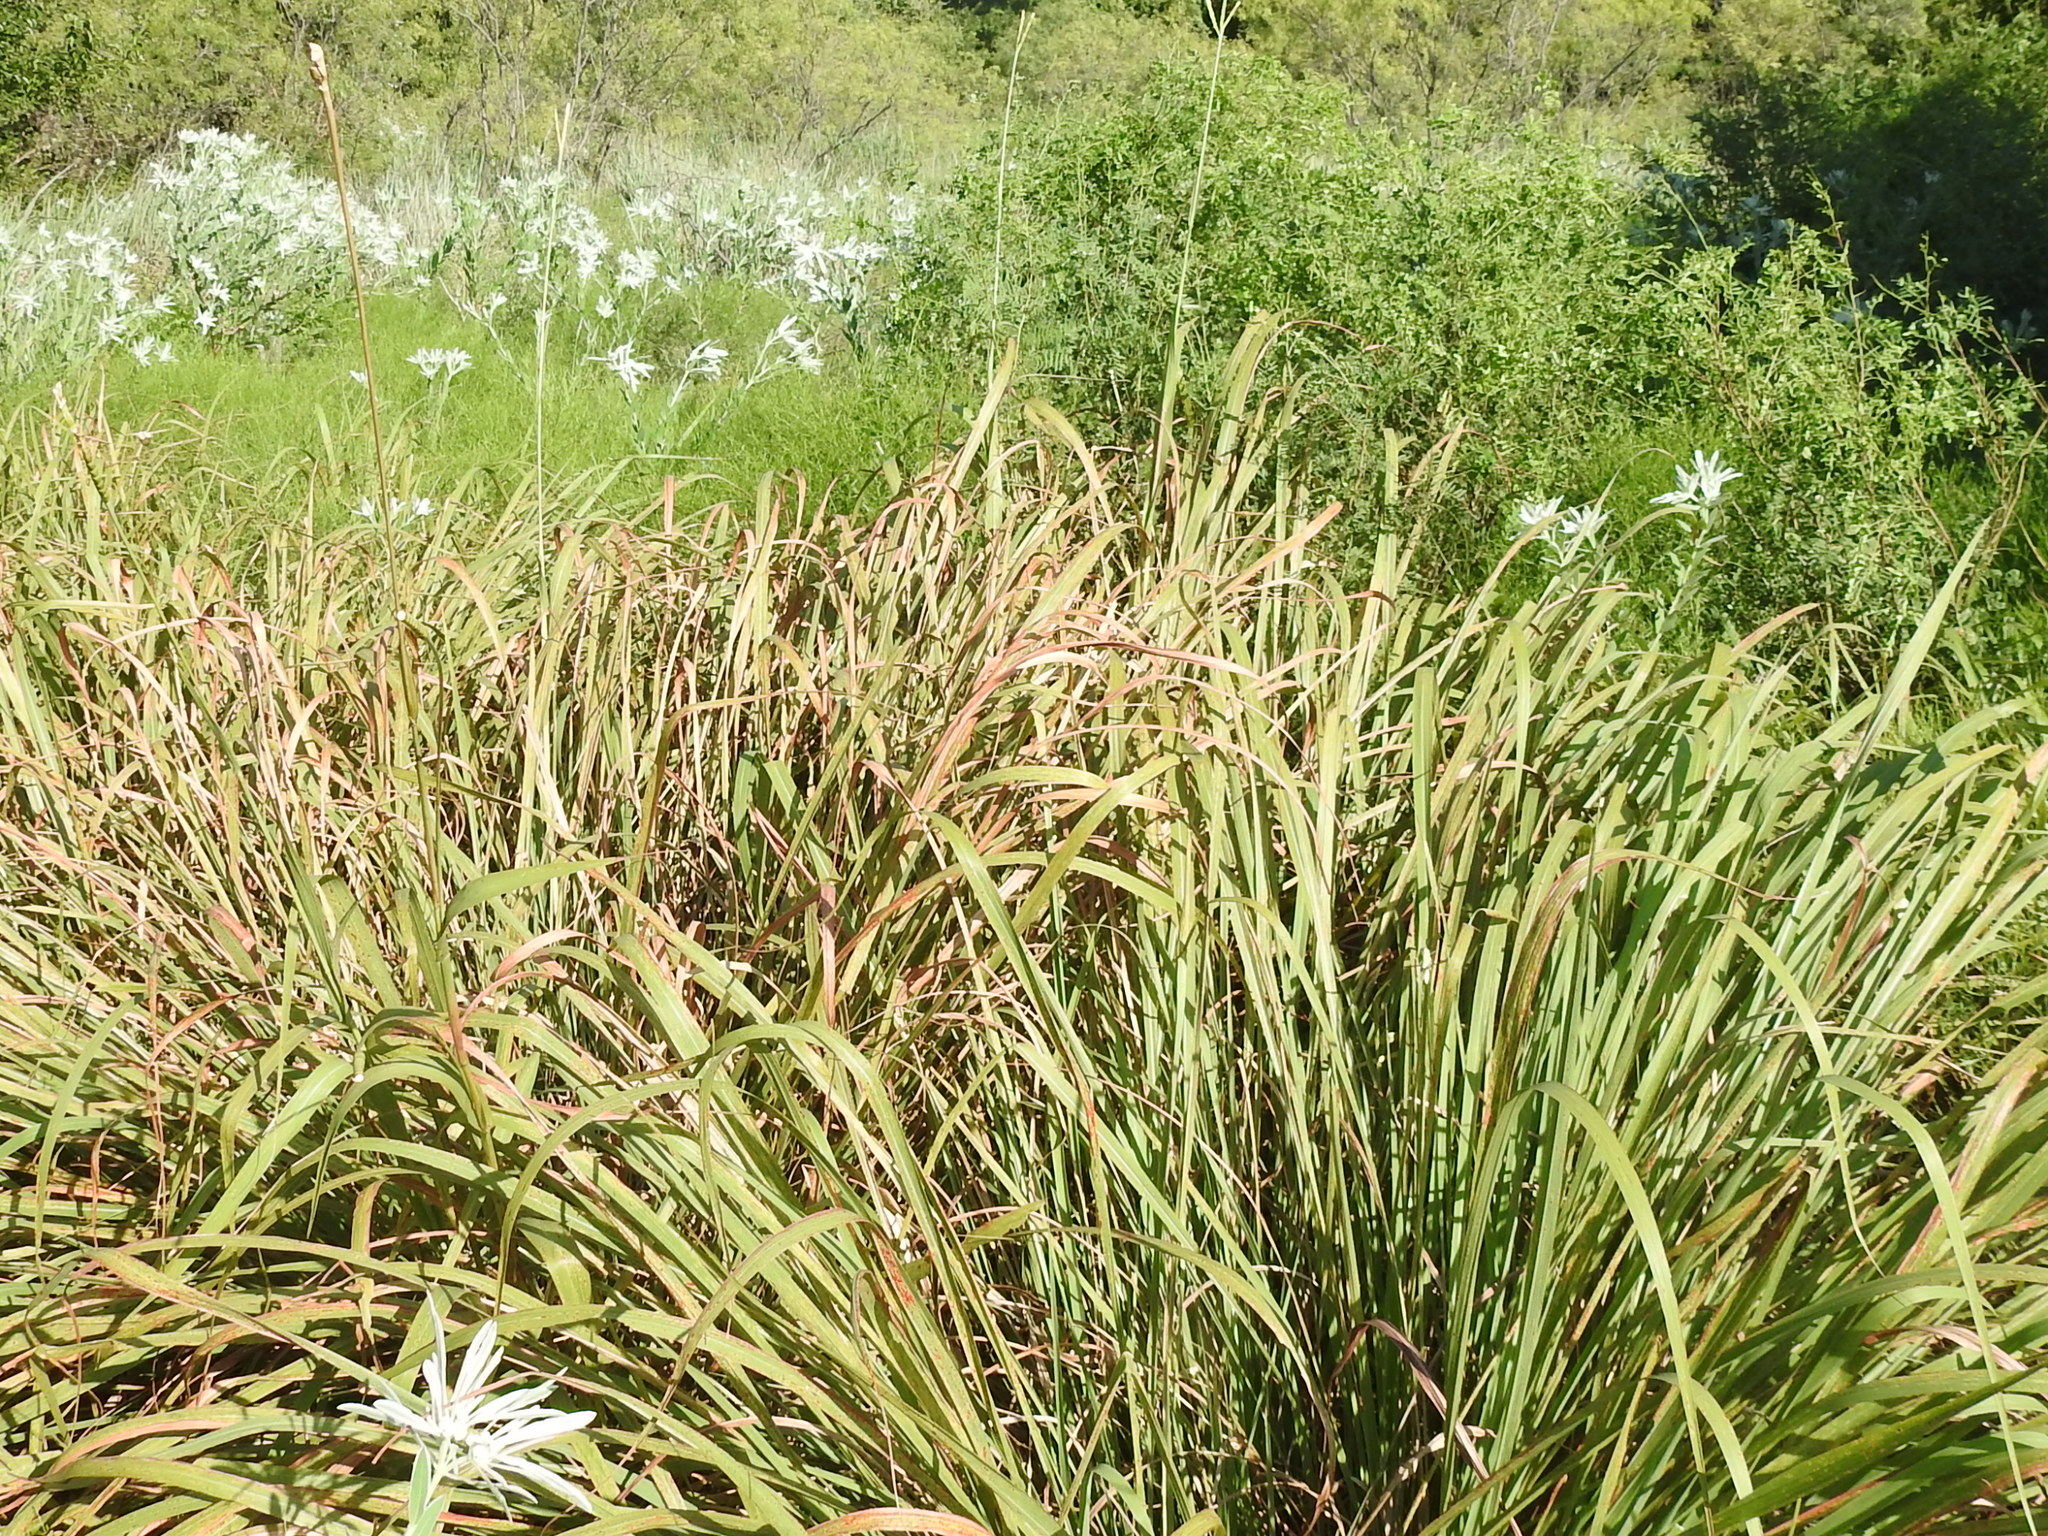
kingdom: Plantae
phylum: Tracheophyta
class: Liliopsida
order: Poales
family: Poaceae
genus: Tripsacum
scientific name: Tripsacum dactyloides
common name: Buffalo-grass
